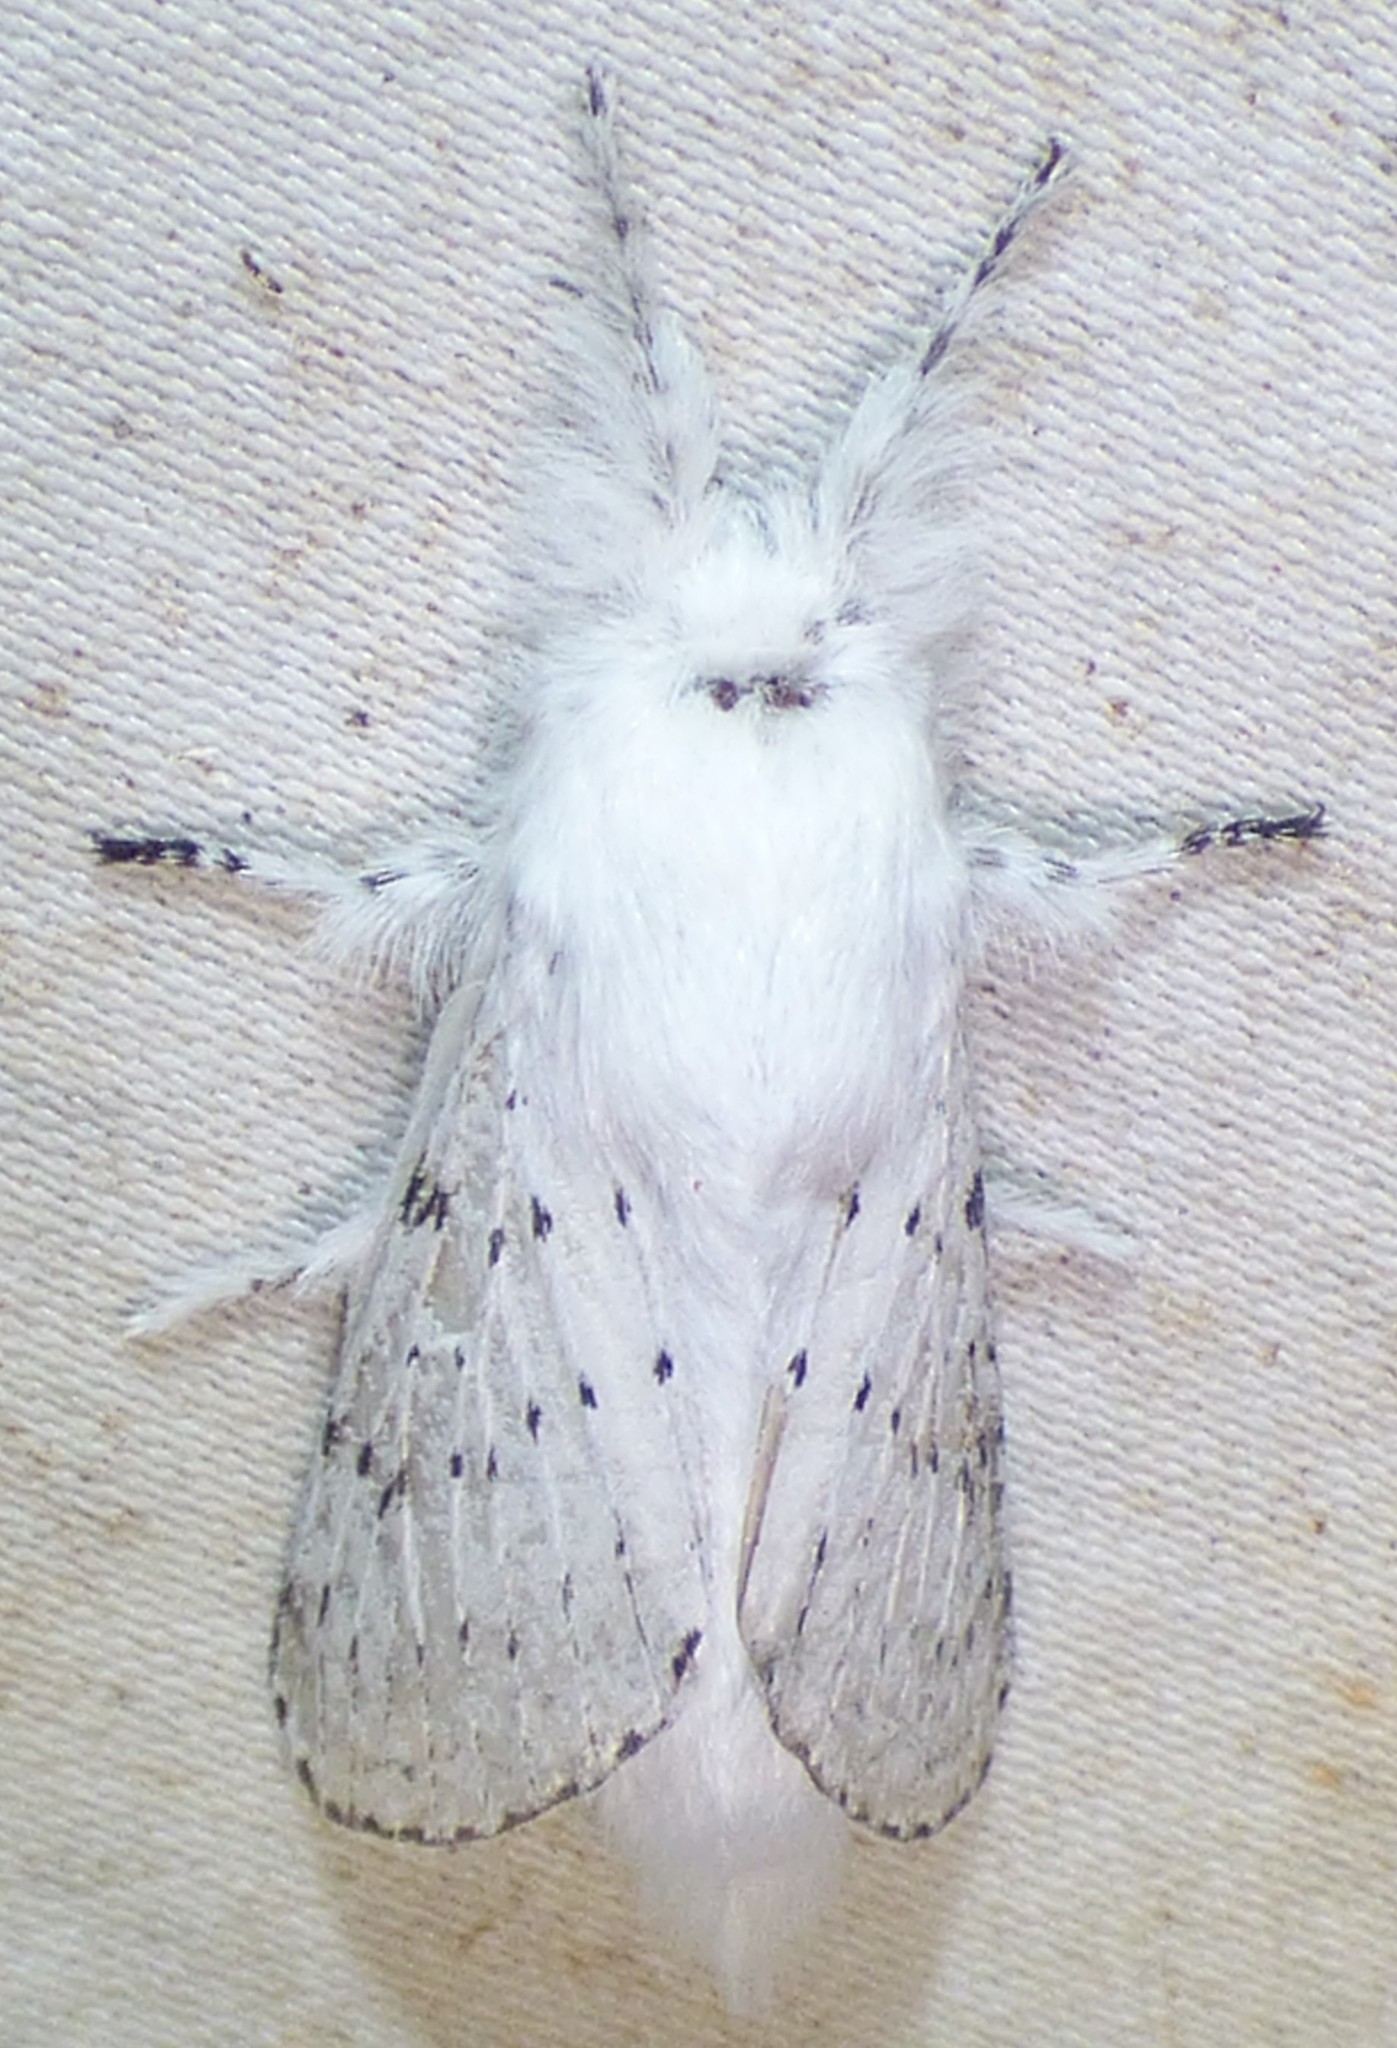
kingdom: Animalia
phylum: Arthropoda
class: Insecta
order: Lepidoptera
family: Lasiocampidae
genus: Artace
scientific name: Artace cribrarius
